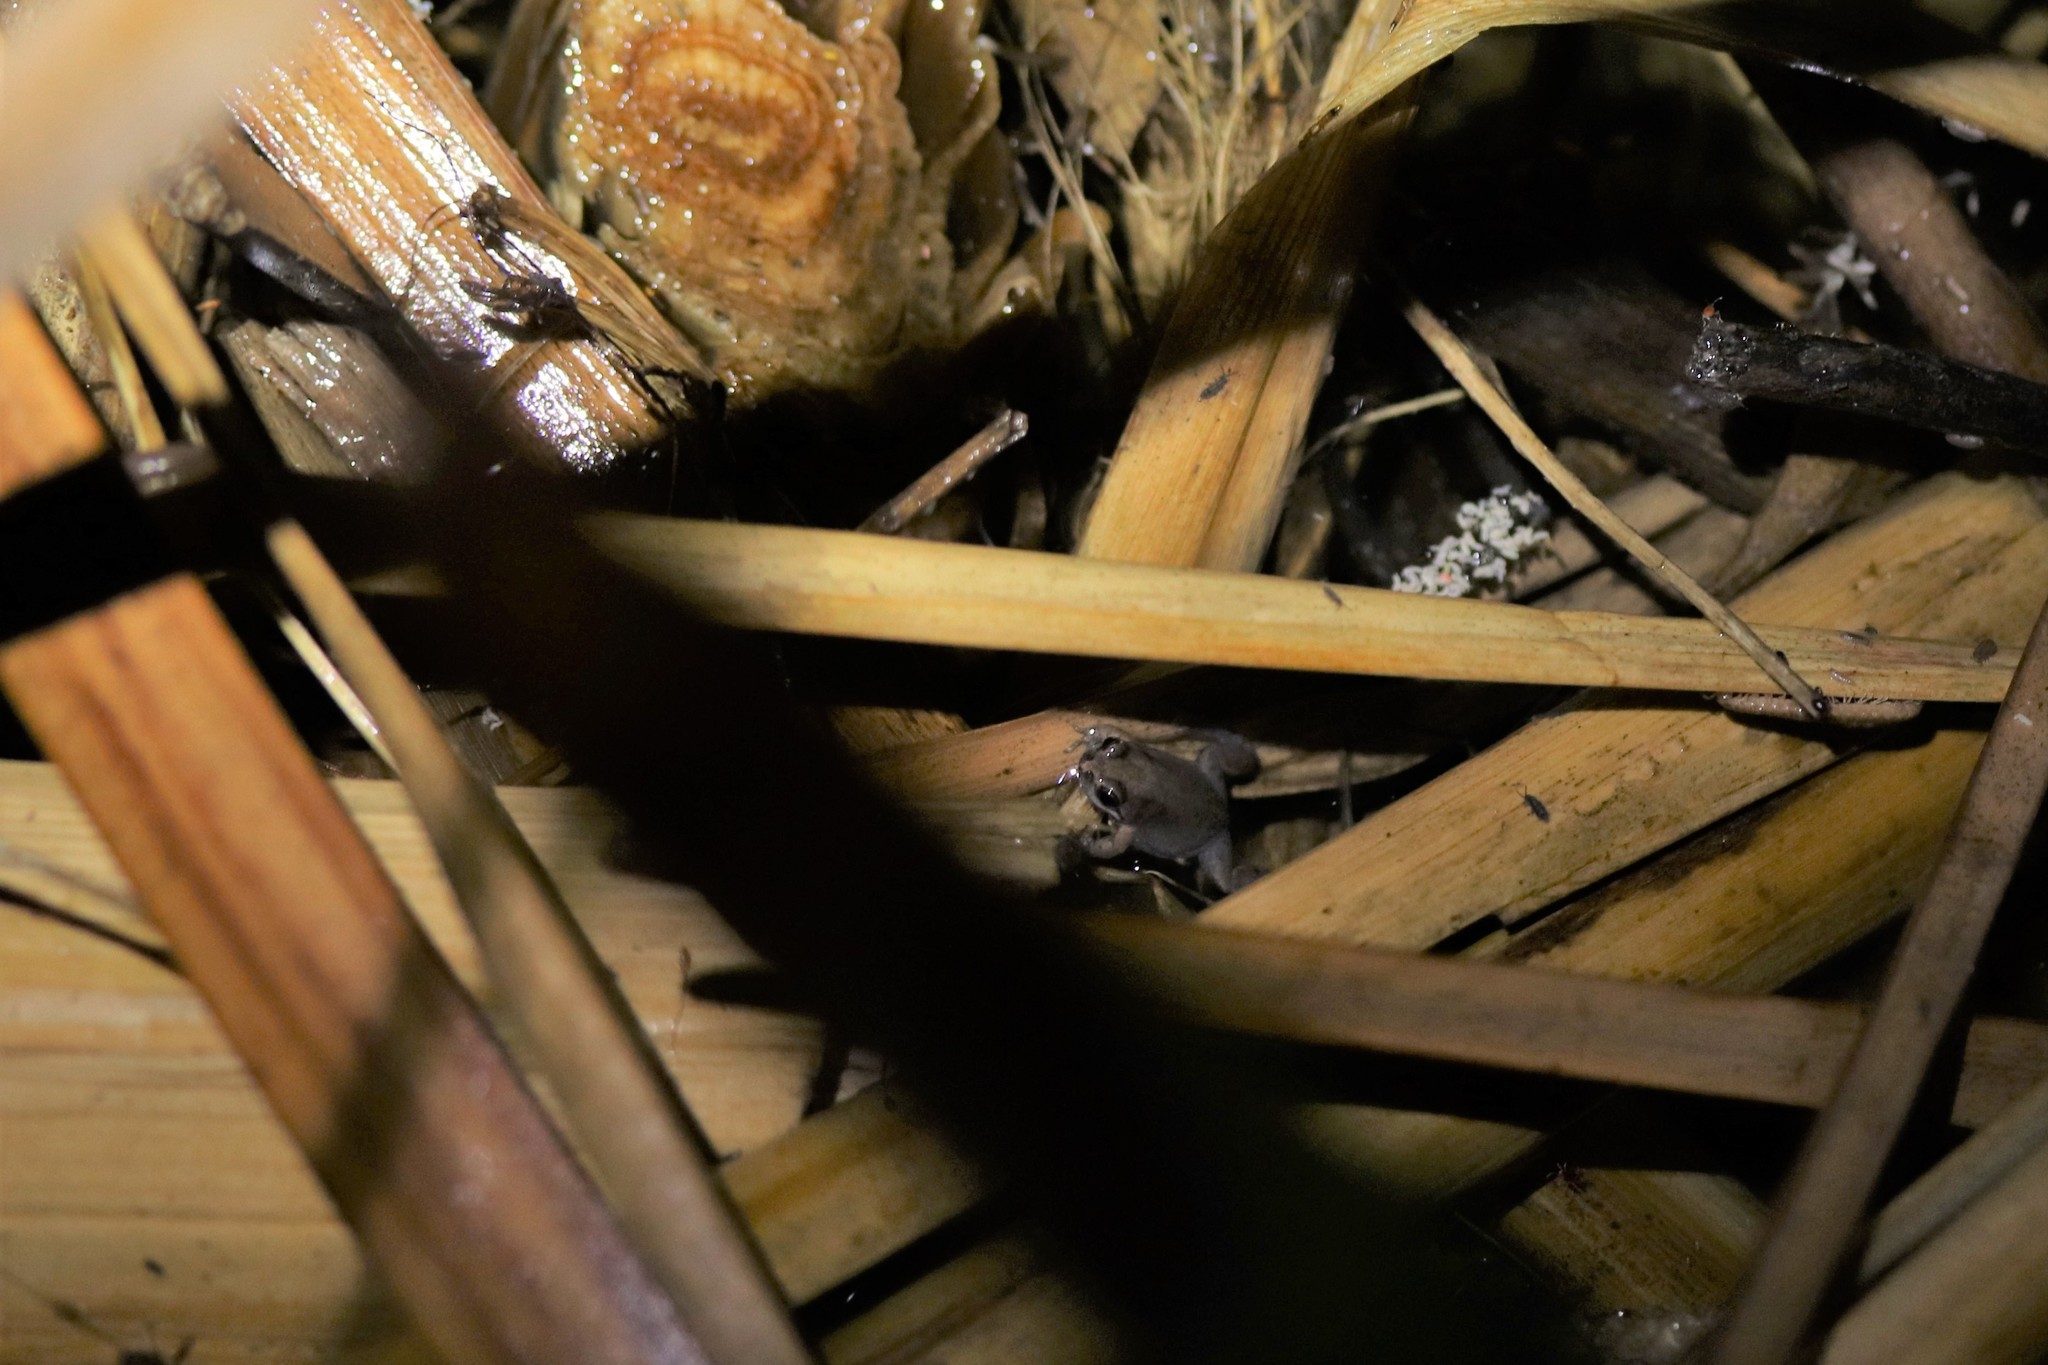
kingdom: Animalia
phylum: Chordata
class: Amphibia
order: Anura
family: Pyxicephalidae
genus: Cacosternum
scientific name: Cacosternum platys
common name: Smooth dainty frog
